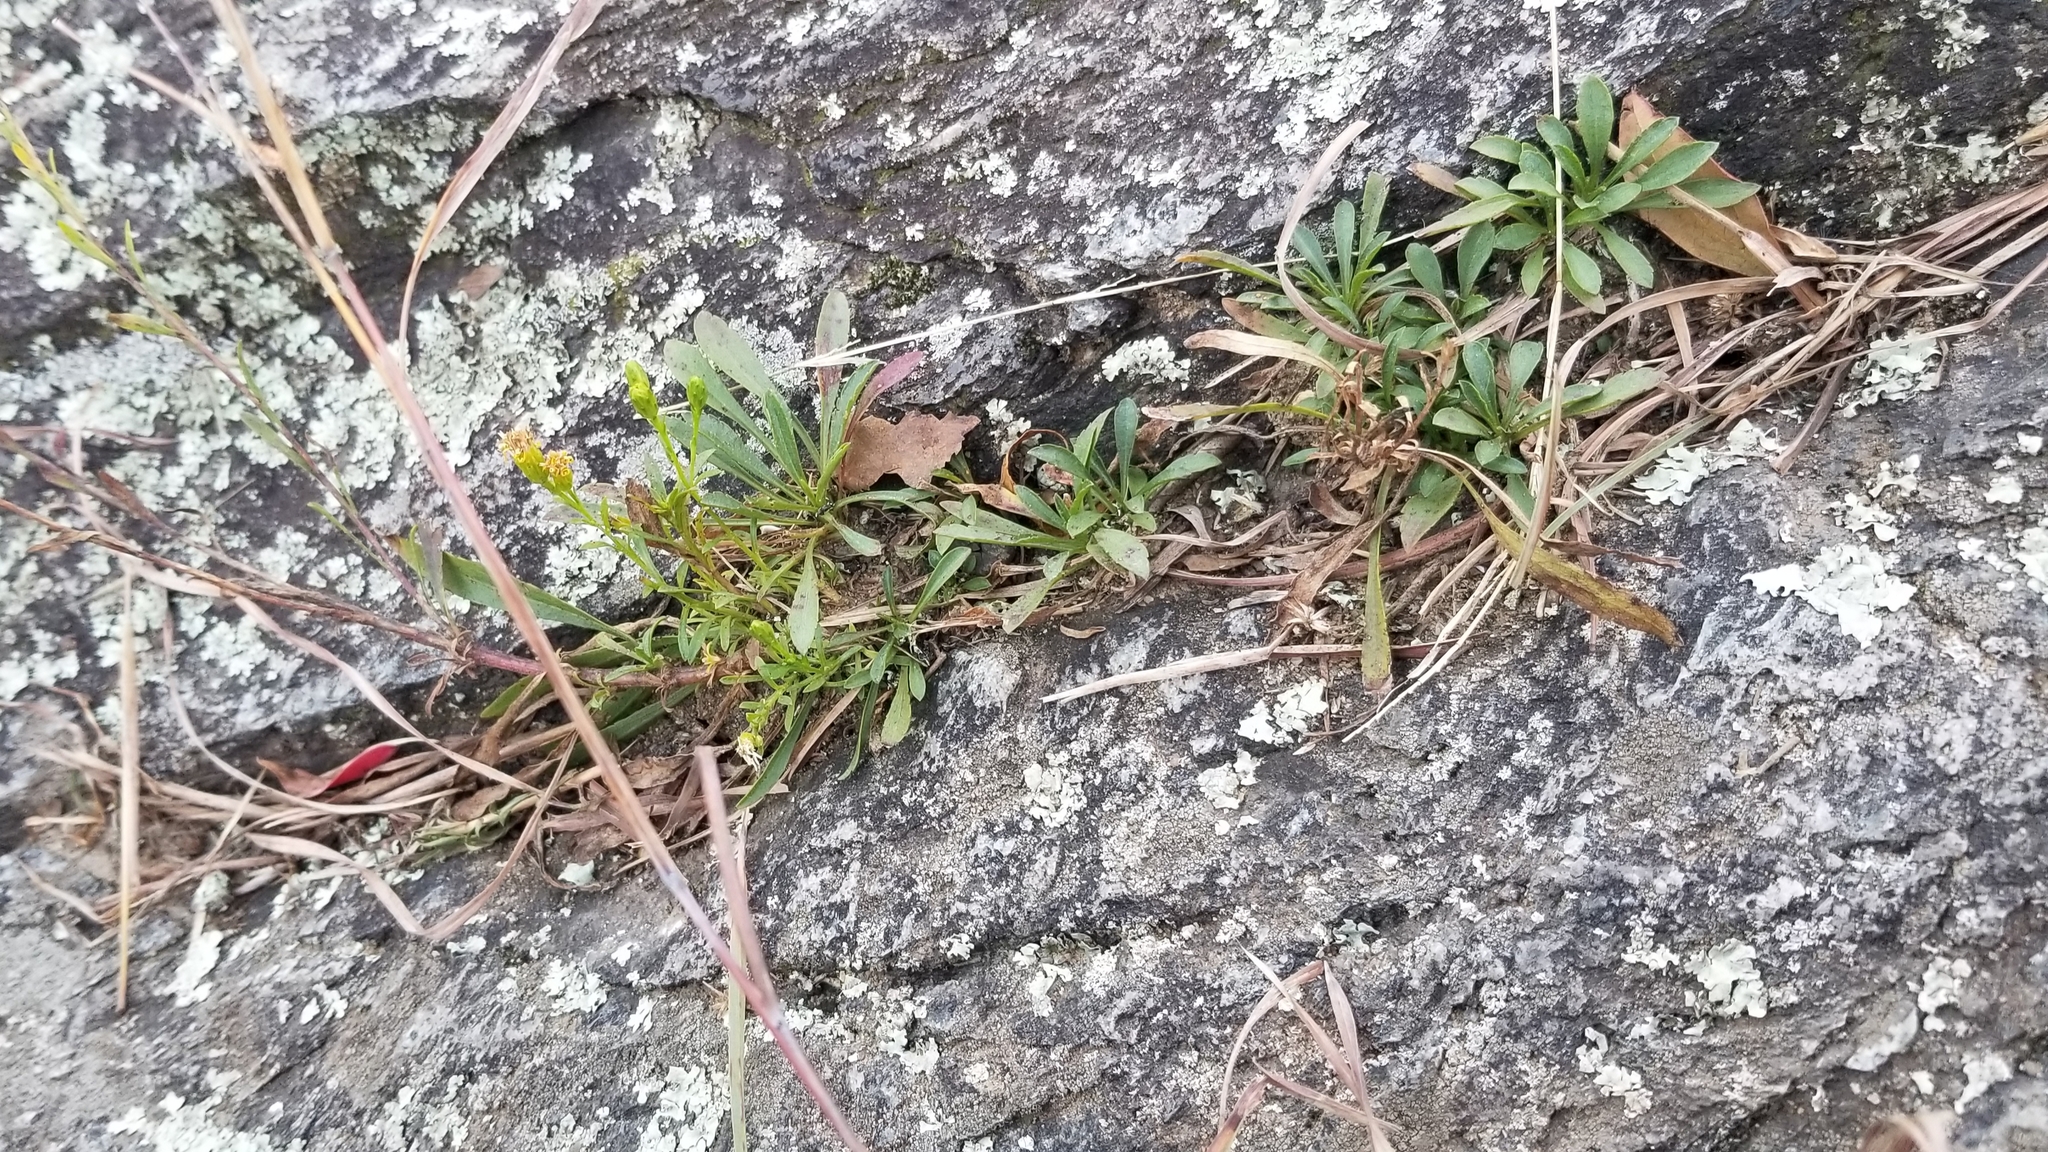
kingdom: Plantae
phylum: Tracheophyta
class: Magnoliopsida
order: Asterales
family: Asteraceae
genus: Solidago
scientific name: Solidago racemosa
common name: Lake ontario goldenrod
